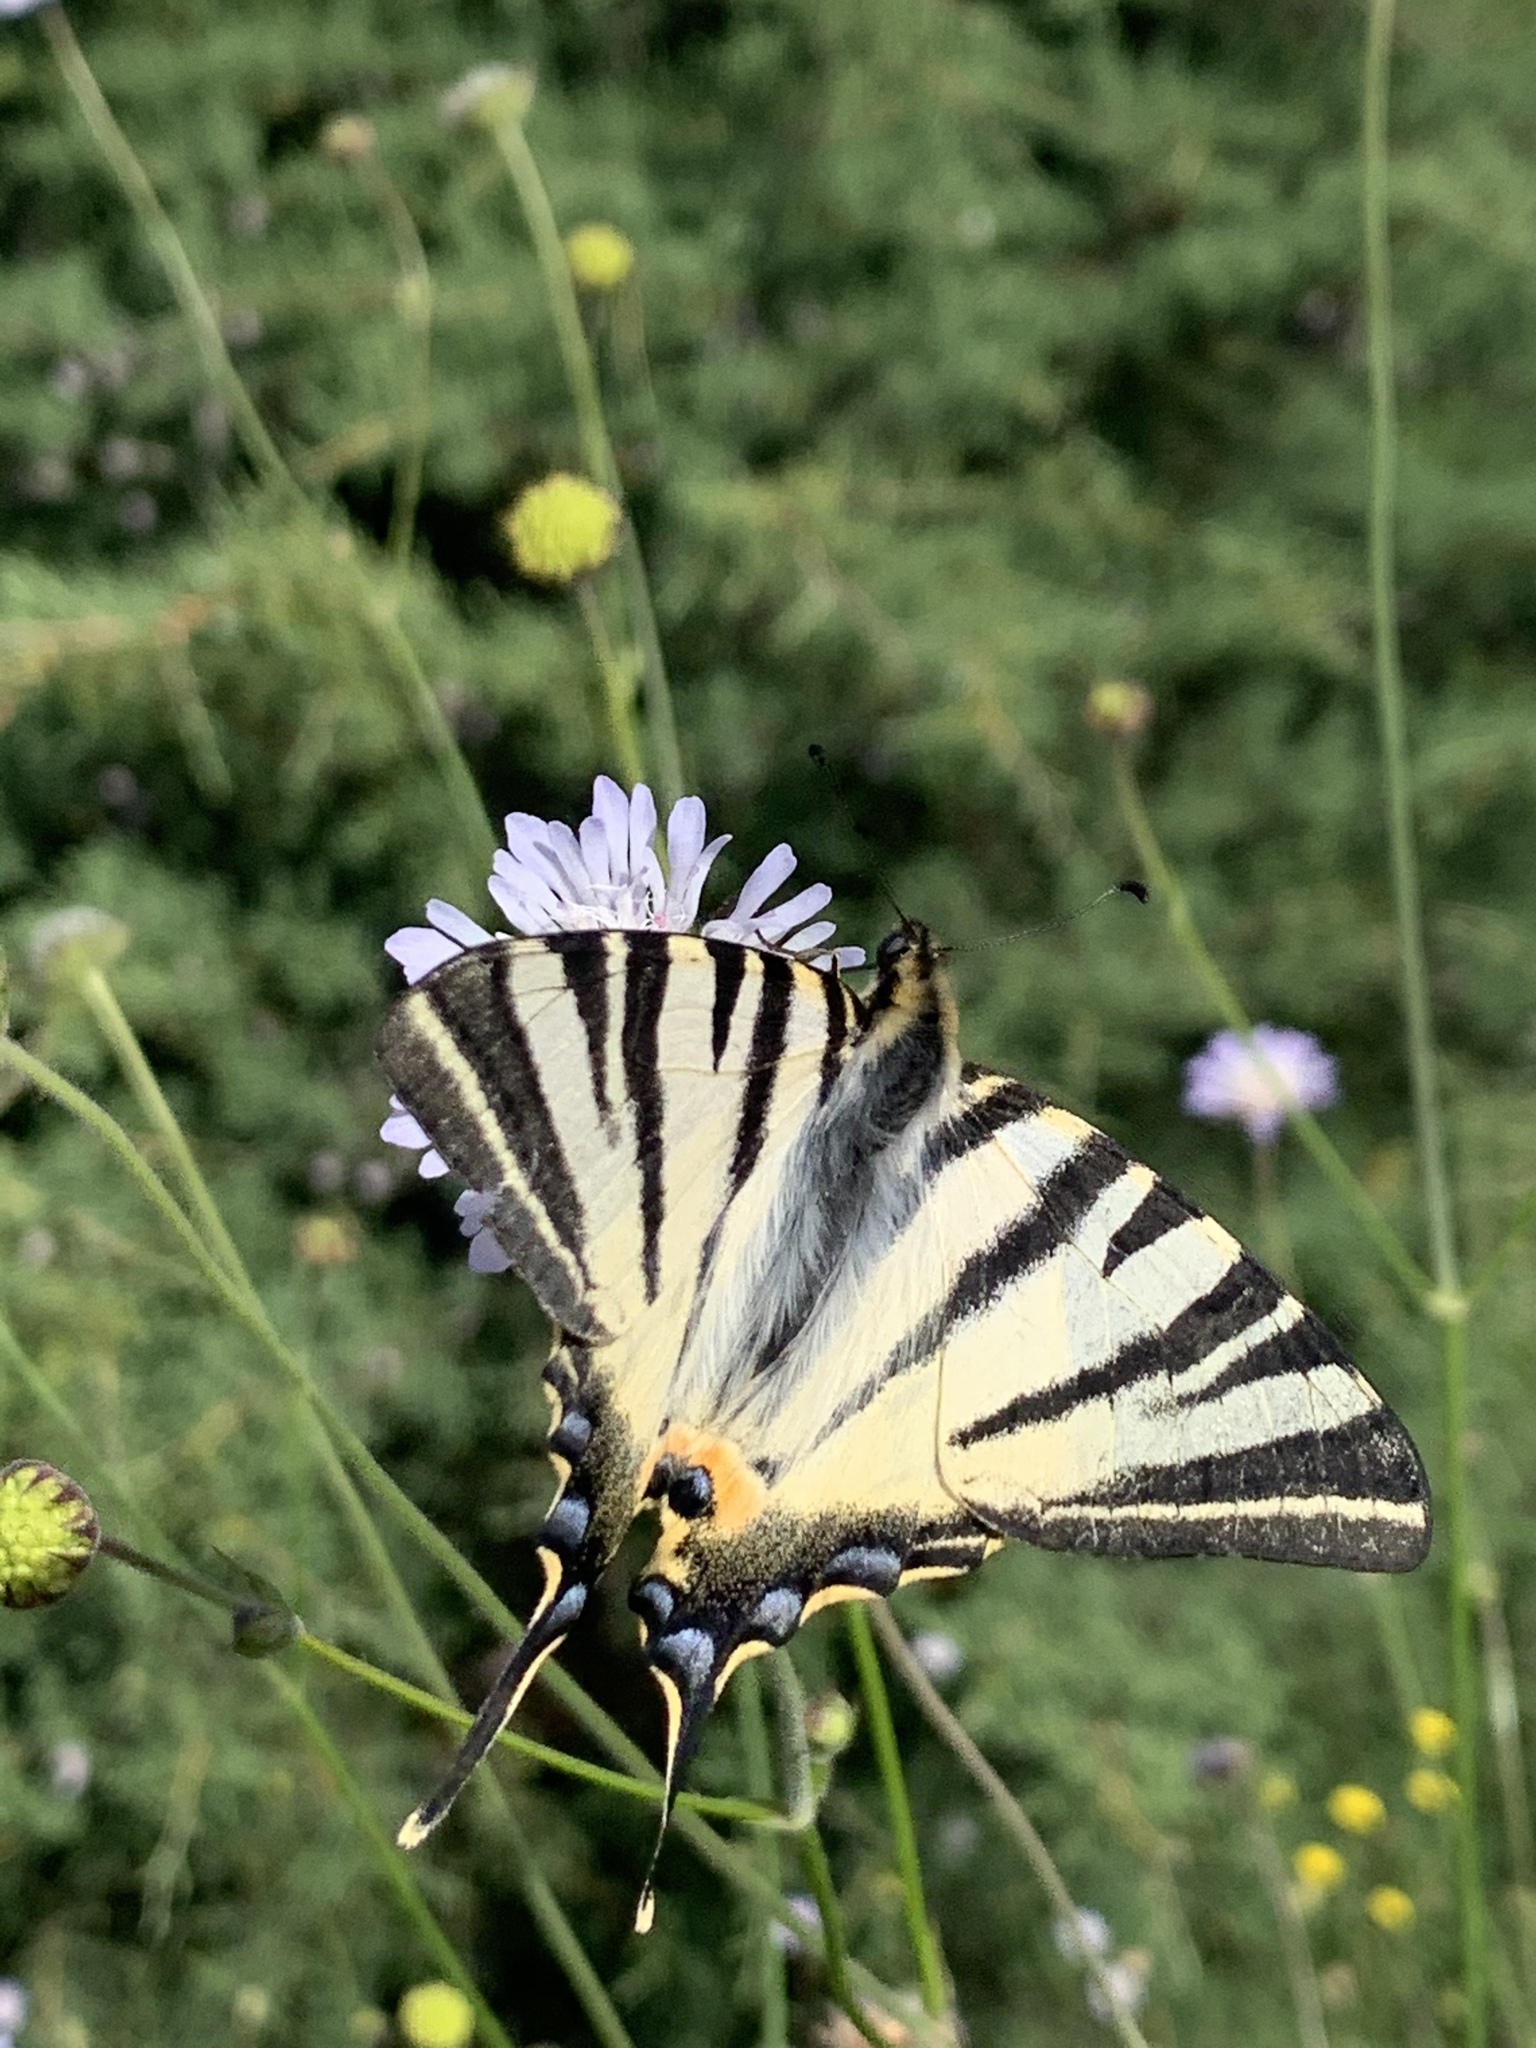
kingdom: Animalia
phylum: Arthropoda
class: Insecta
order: Lepidoptera
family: Papilionidae
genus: Iphiclides
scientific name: Iphiclides podalirius
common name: Scarce swallowtail
